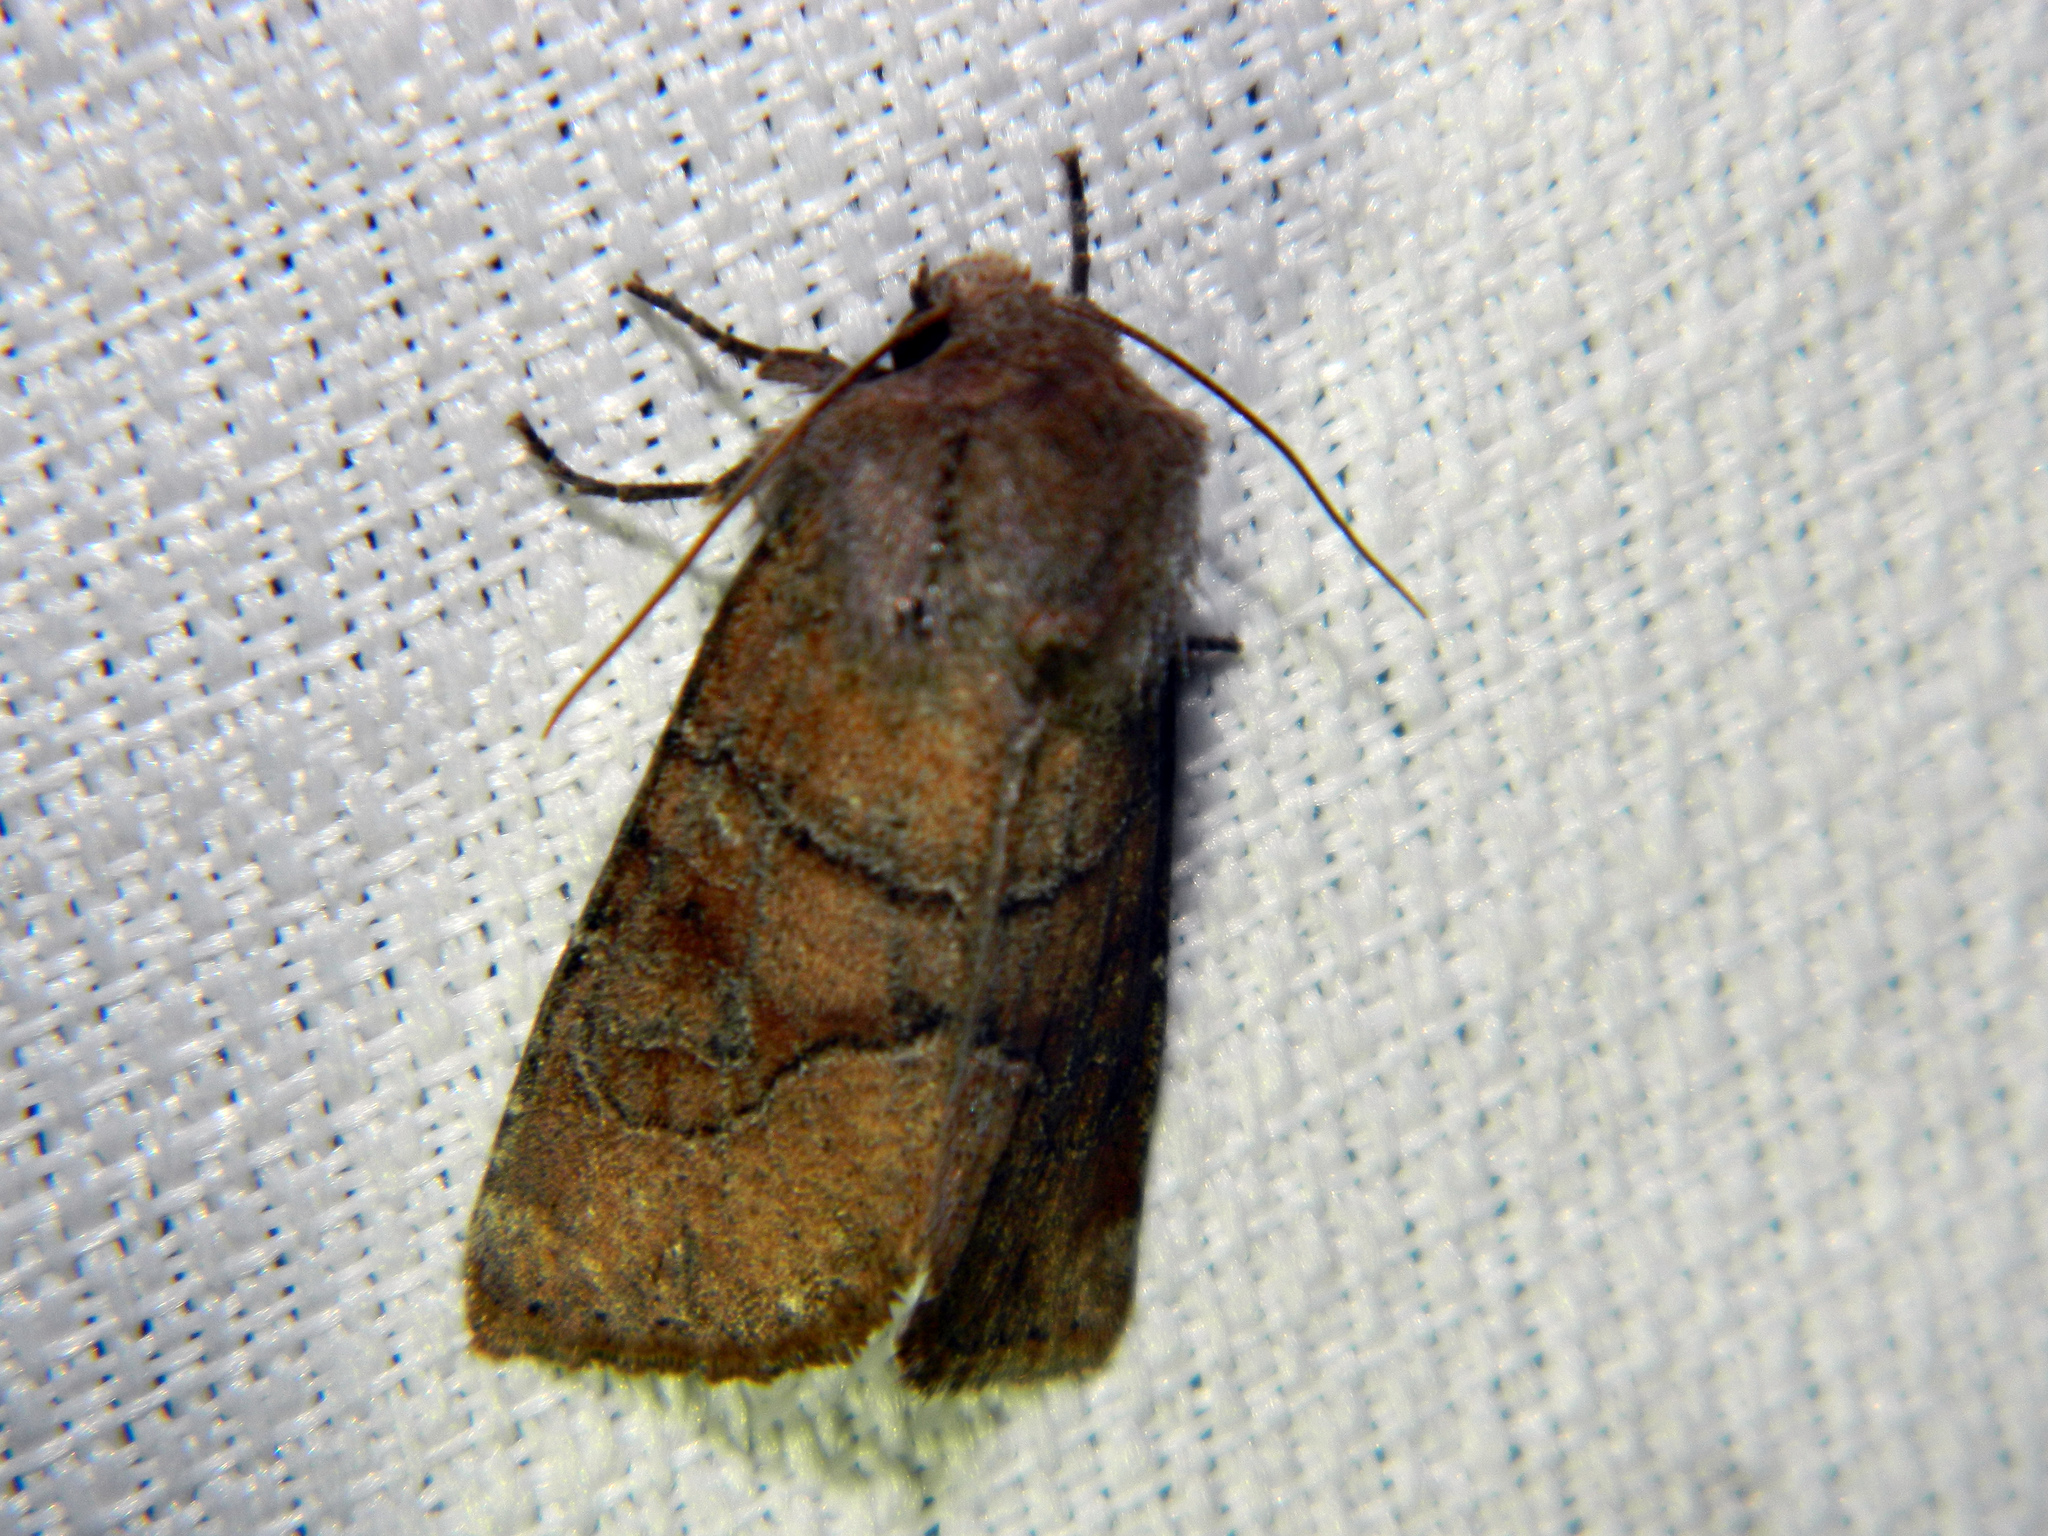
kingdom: Animalia
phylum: Arthropoda
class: Insecta
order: Lepidoptera
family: Noctuidae
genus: Crocigrapha
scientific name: Crocigrapha normani
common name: Norman's quaker
